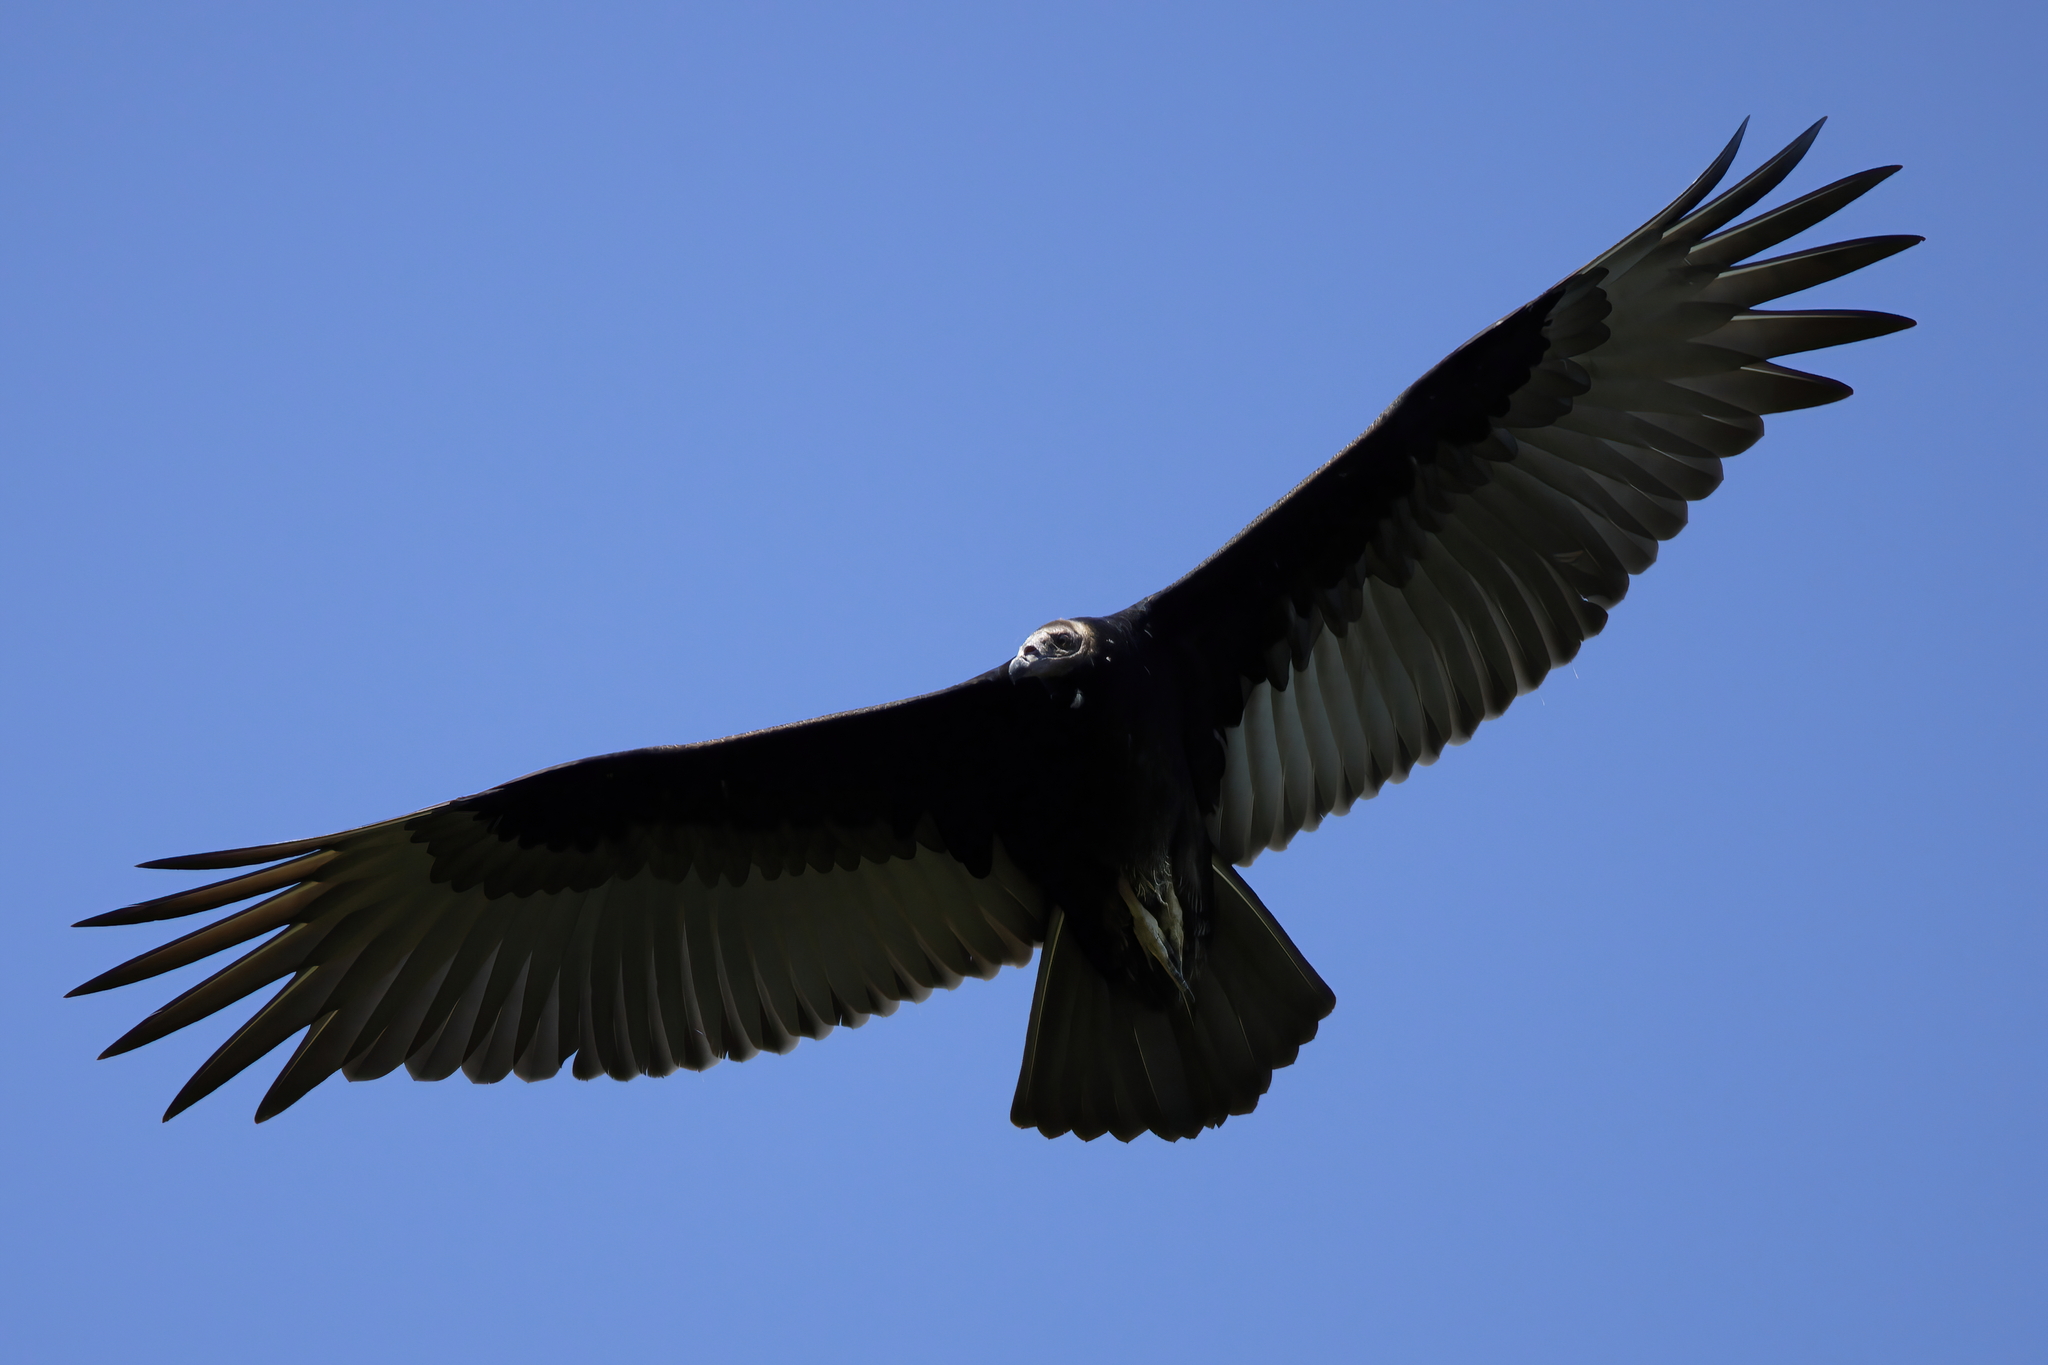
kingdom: Animalia
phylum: Chordata
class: Aves
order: Accipitriformes
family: Cathartidae
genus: Cathartes
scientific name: Cathartes aura
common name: Turkey vulture
